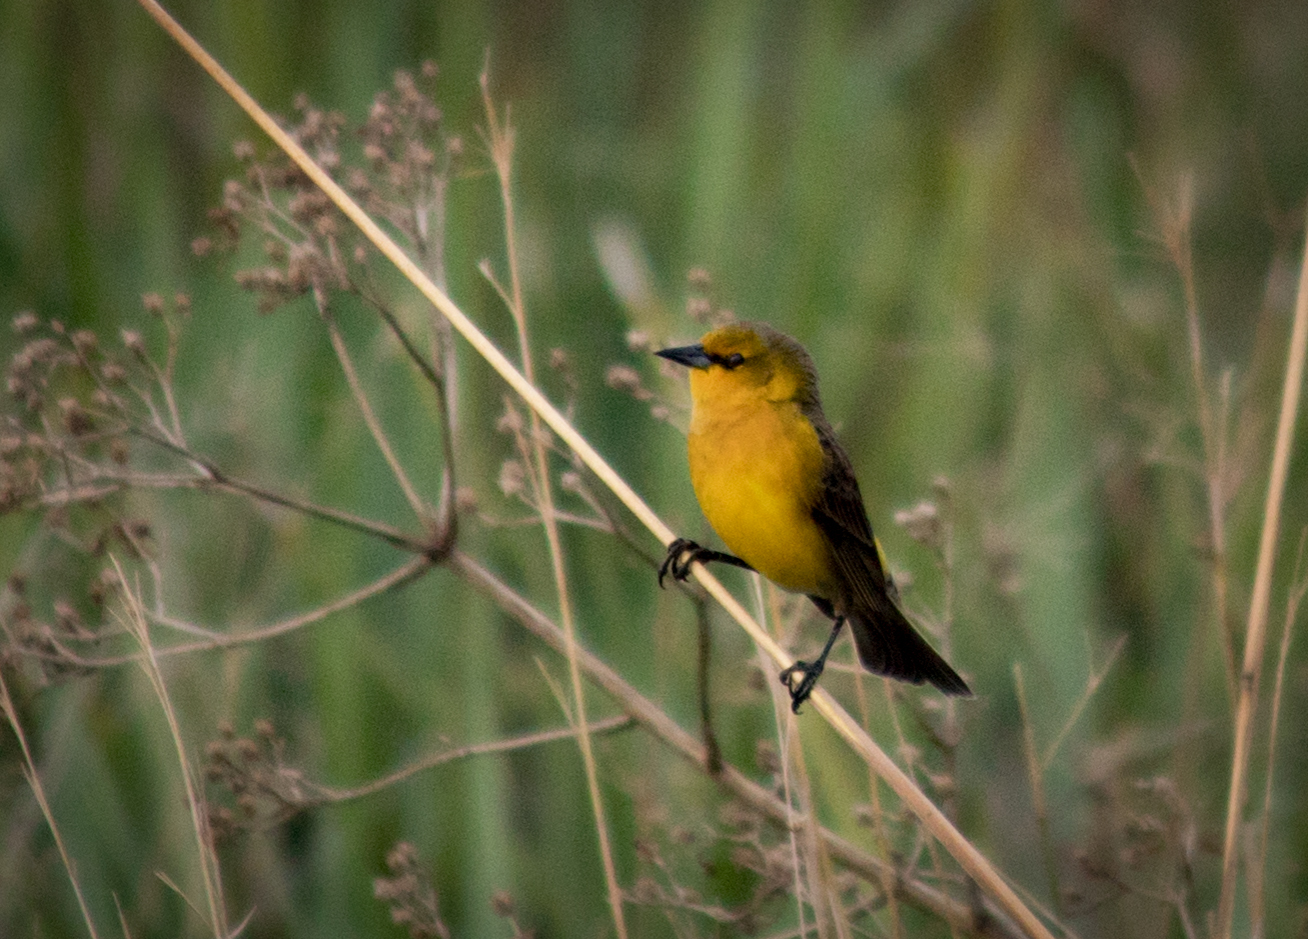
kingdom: Animalia
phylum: Chordata
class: Aves
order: Passeriformes
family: Icteridae
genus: Xanthopsar
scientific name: Xanthopsar flavus
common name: Saffron-cowled blackbird
